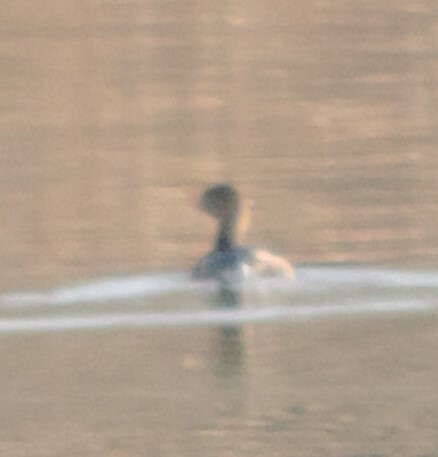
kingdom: Animalia
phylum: Chordata
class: Aves
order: Podicipediformes
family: Podicipedidae
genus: Podilymbus
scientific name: Podilymbus podiceps
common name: Pied-billed grebe
